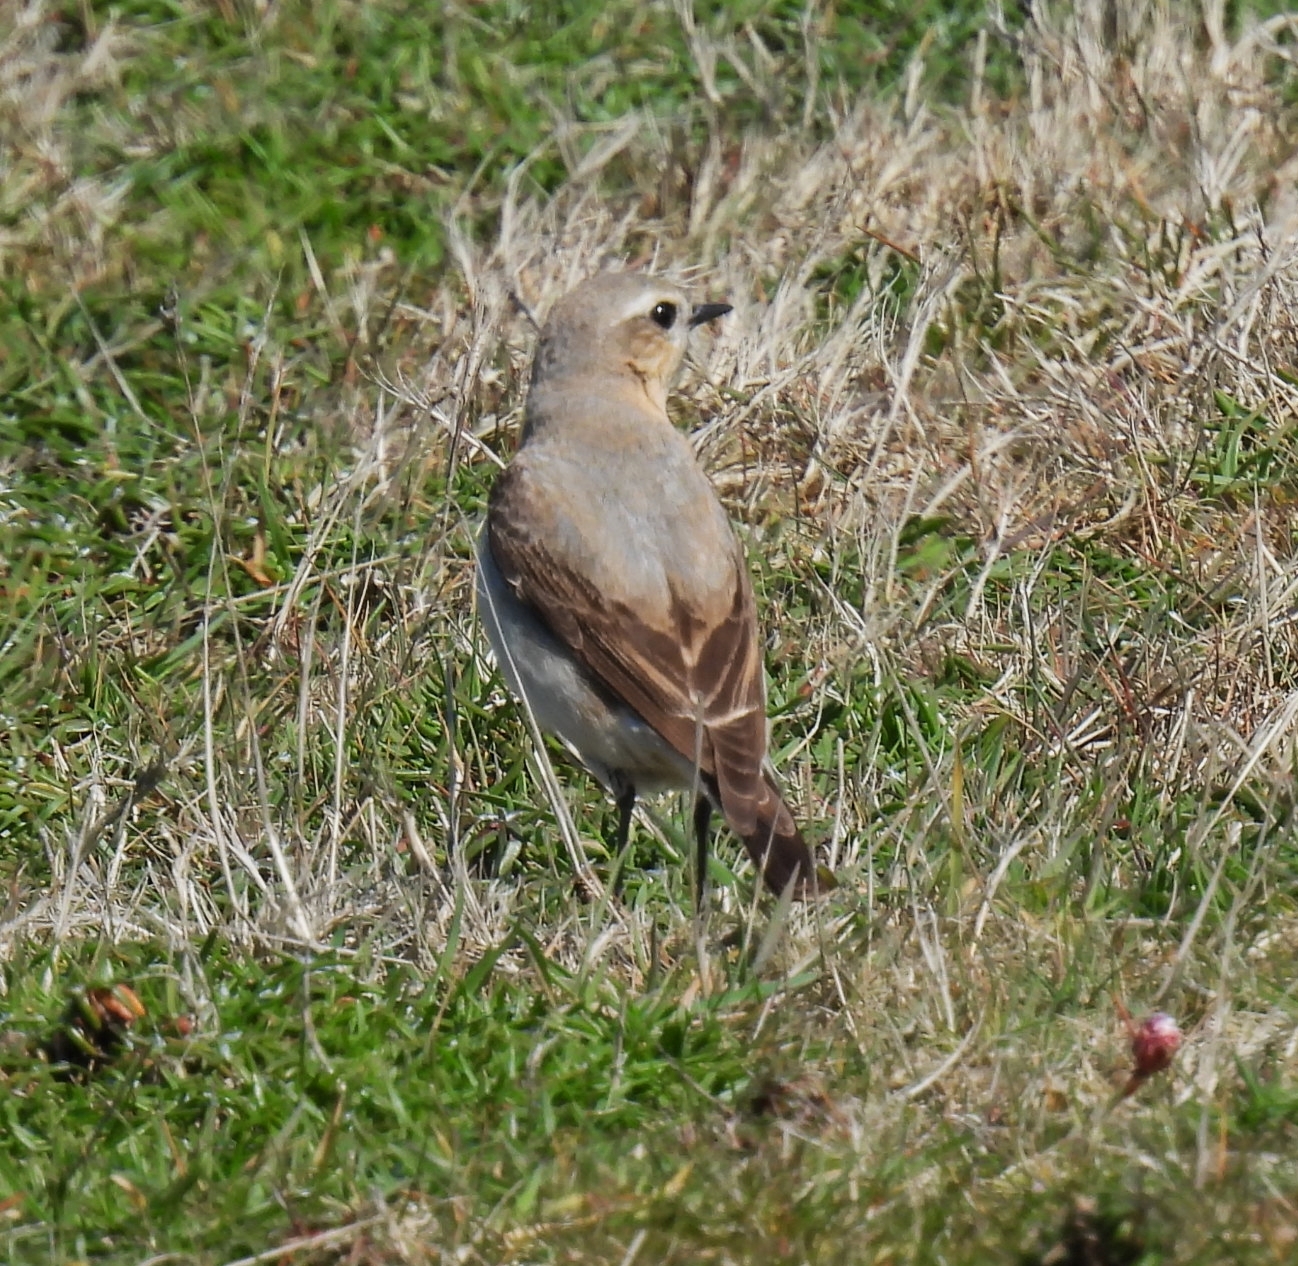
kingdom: Animalia
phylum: Chordata
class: Aves
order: Passeriformes
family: Muscicapidae
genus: Oenanthe
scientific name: Oenanthe oenanthe
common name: Northern wheatear
